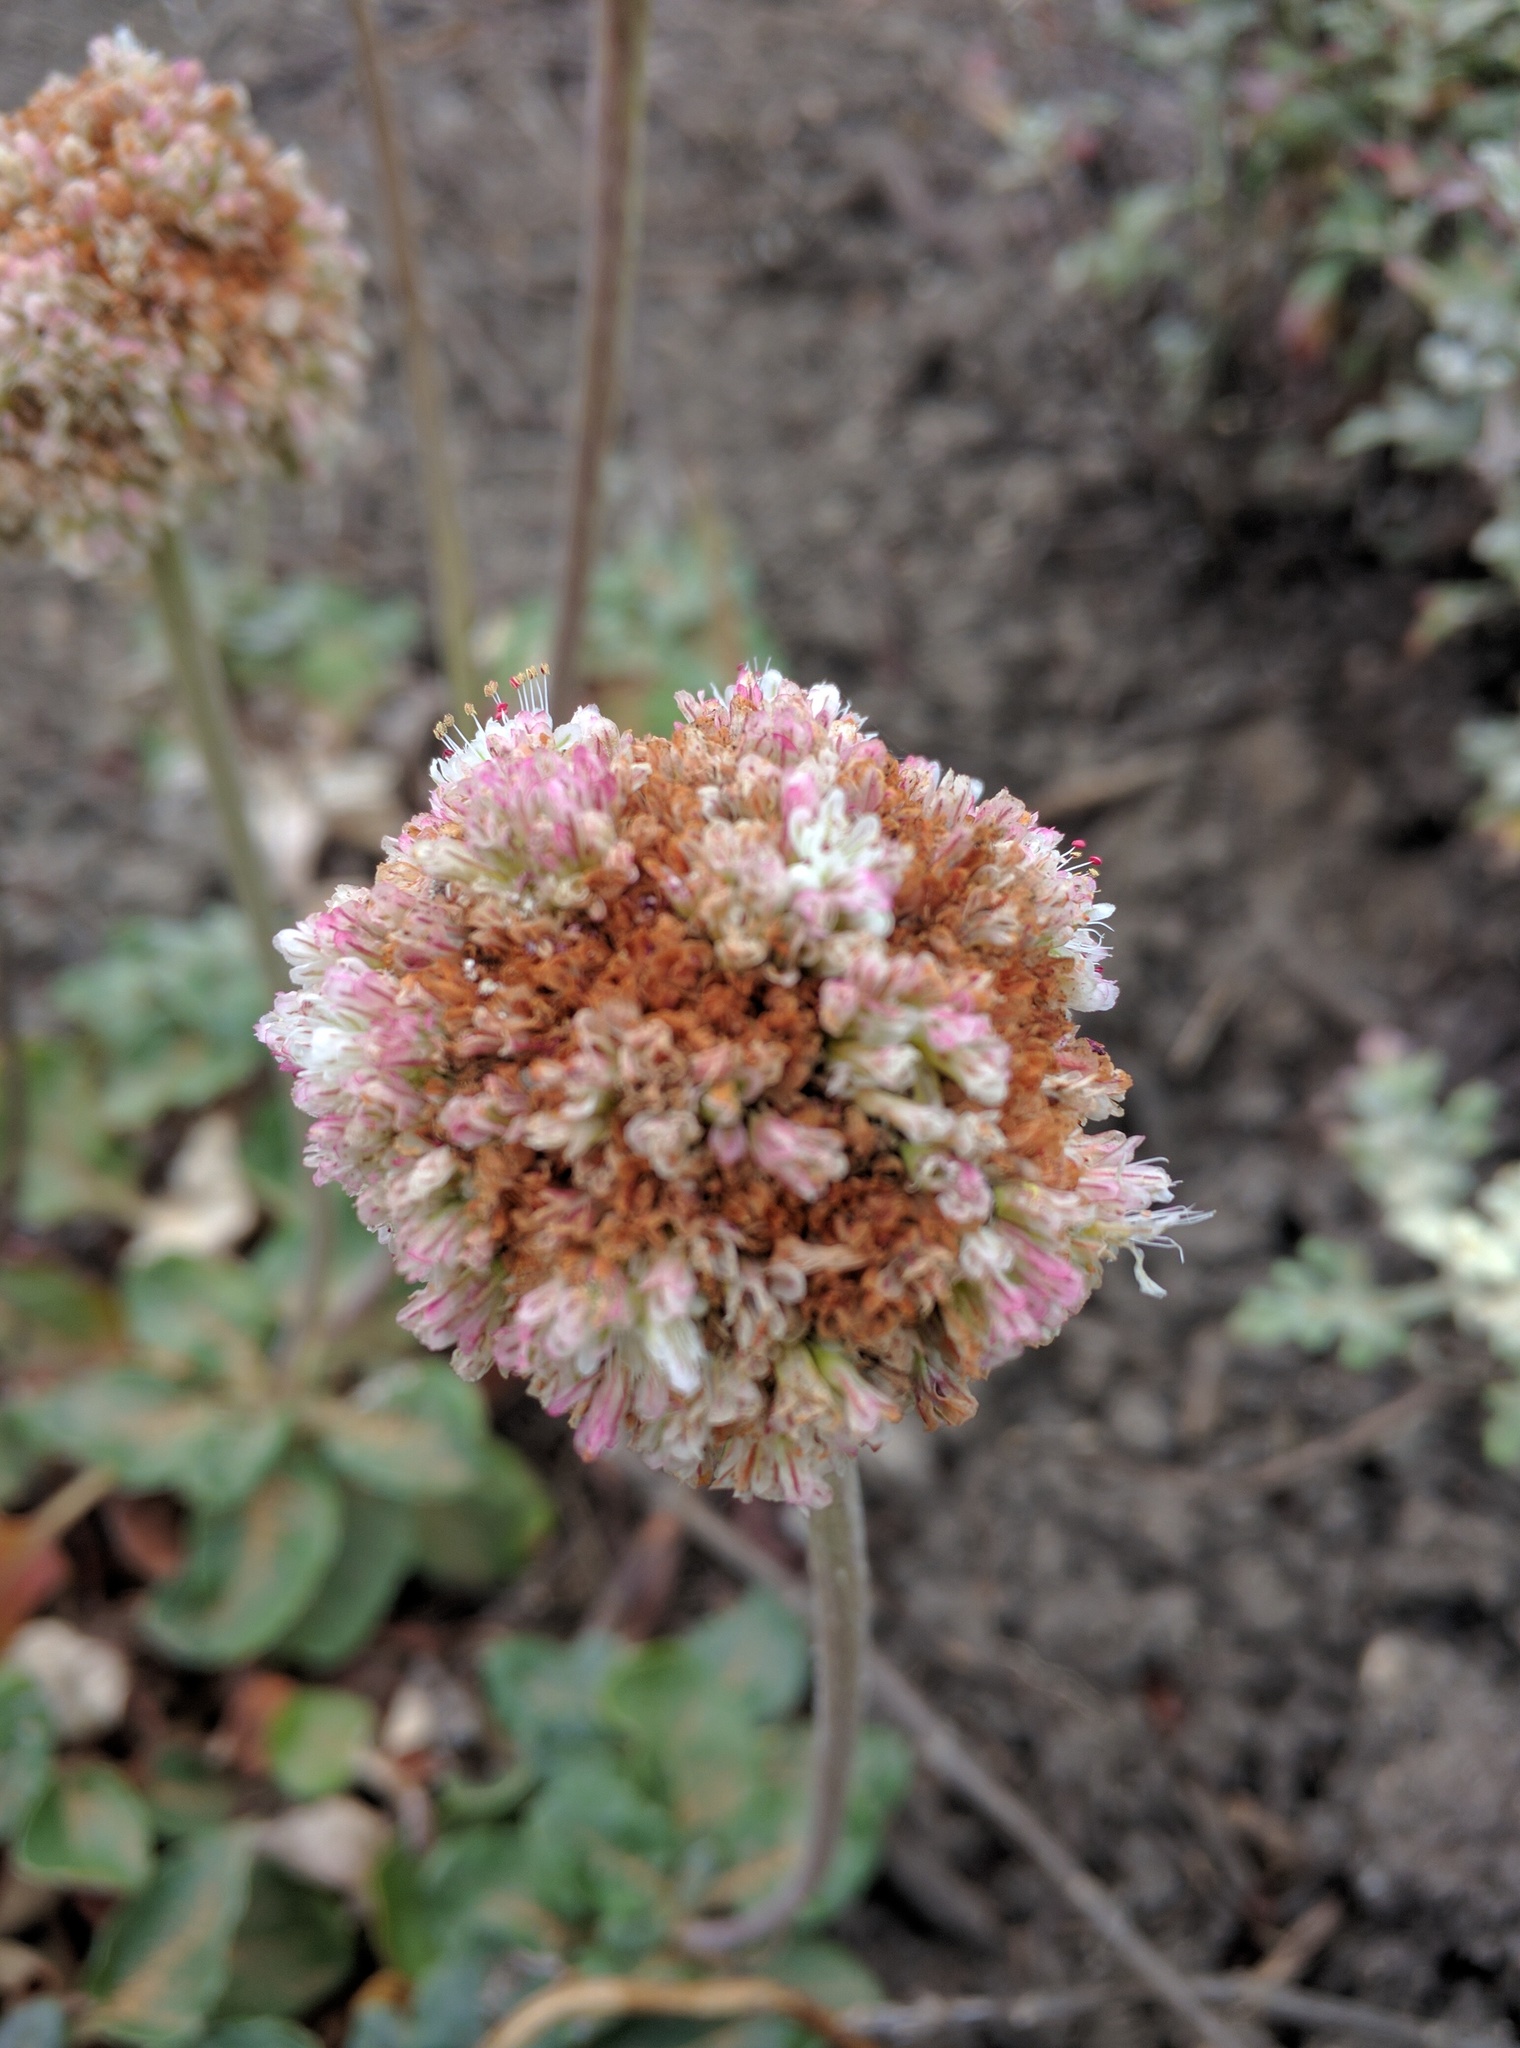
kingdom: Plantae
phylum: Tracheophyta
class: Magnoliopsida
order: Caryophyllales
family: Polygonaceae
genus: Eriogonum
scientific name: Eriogonum latifolium
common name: Seaside wild buckwheat
